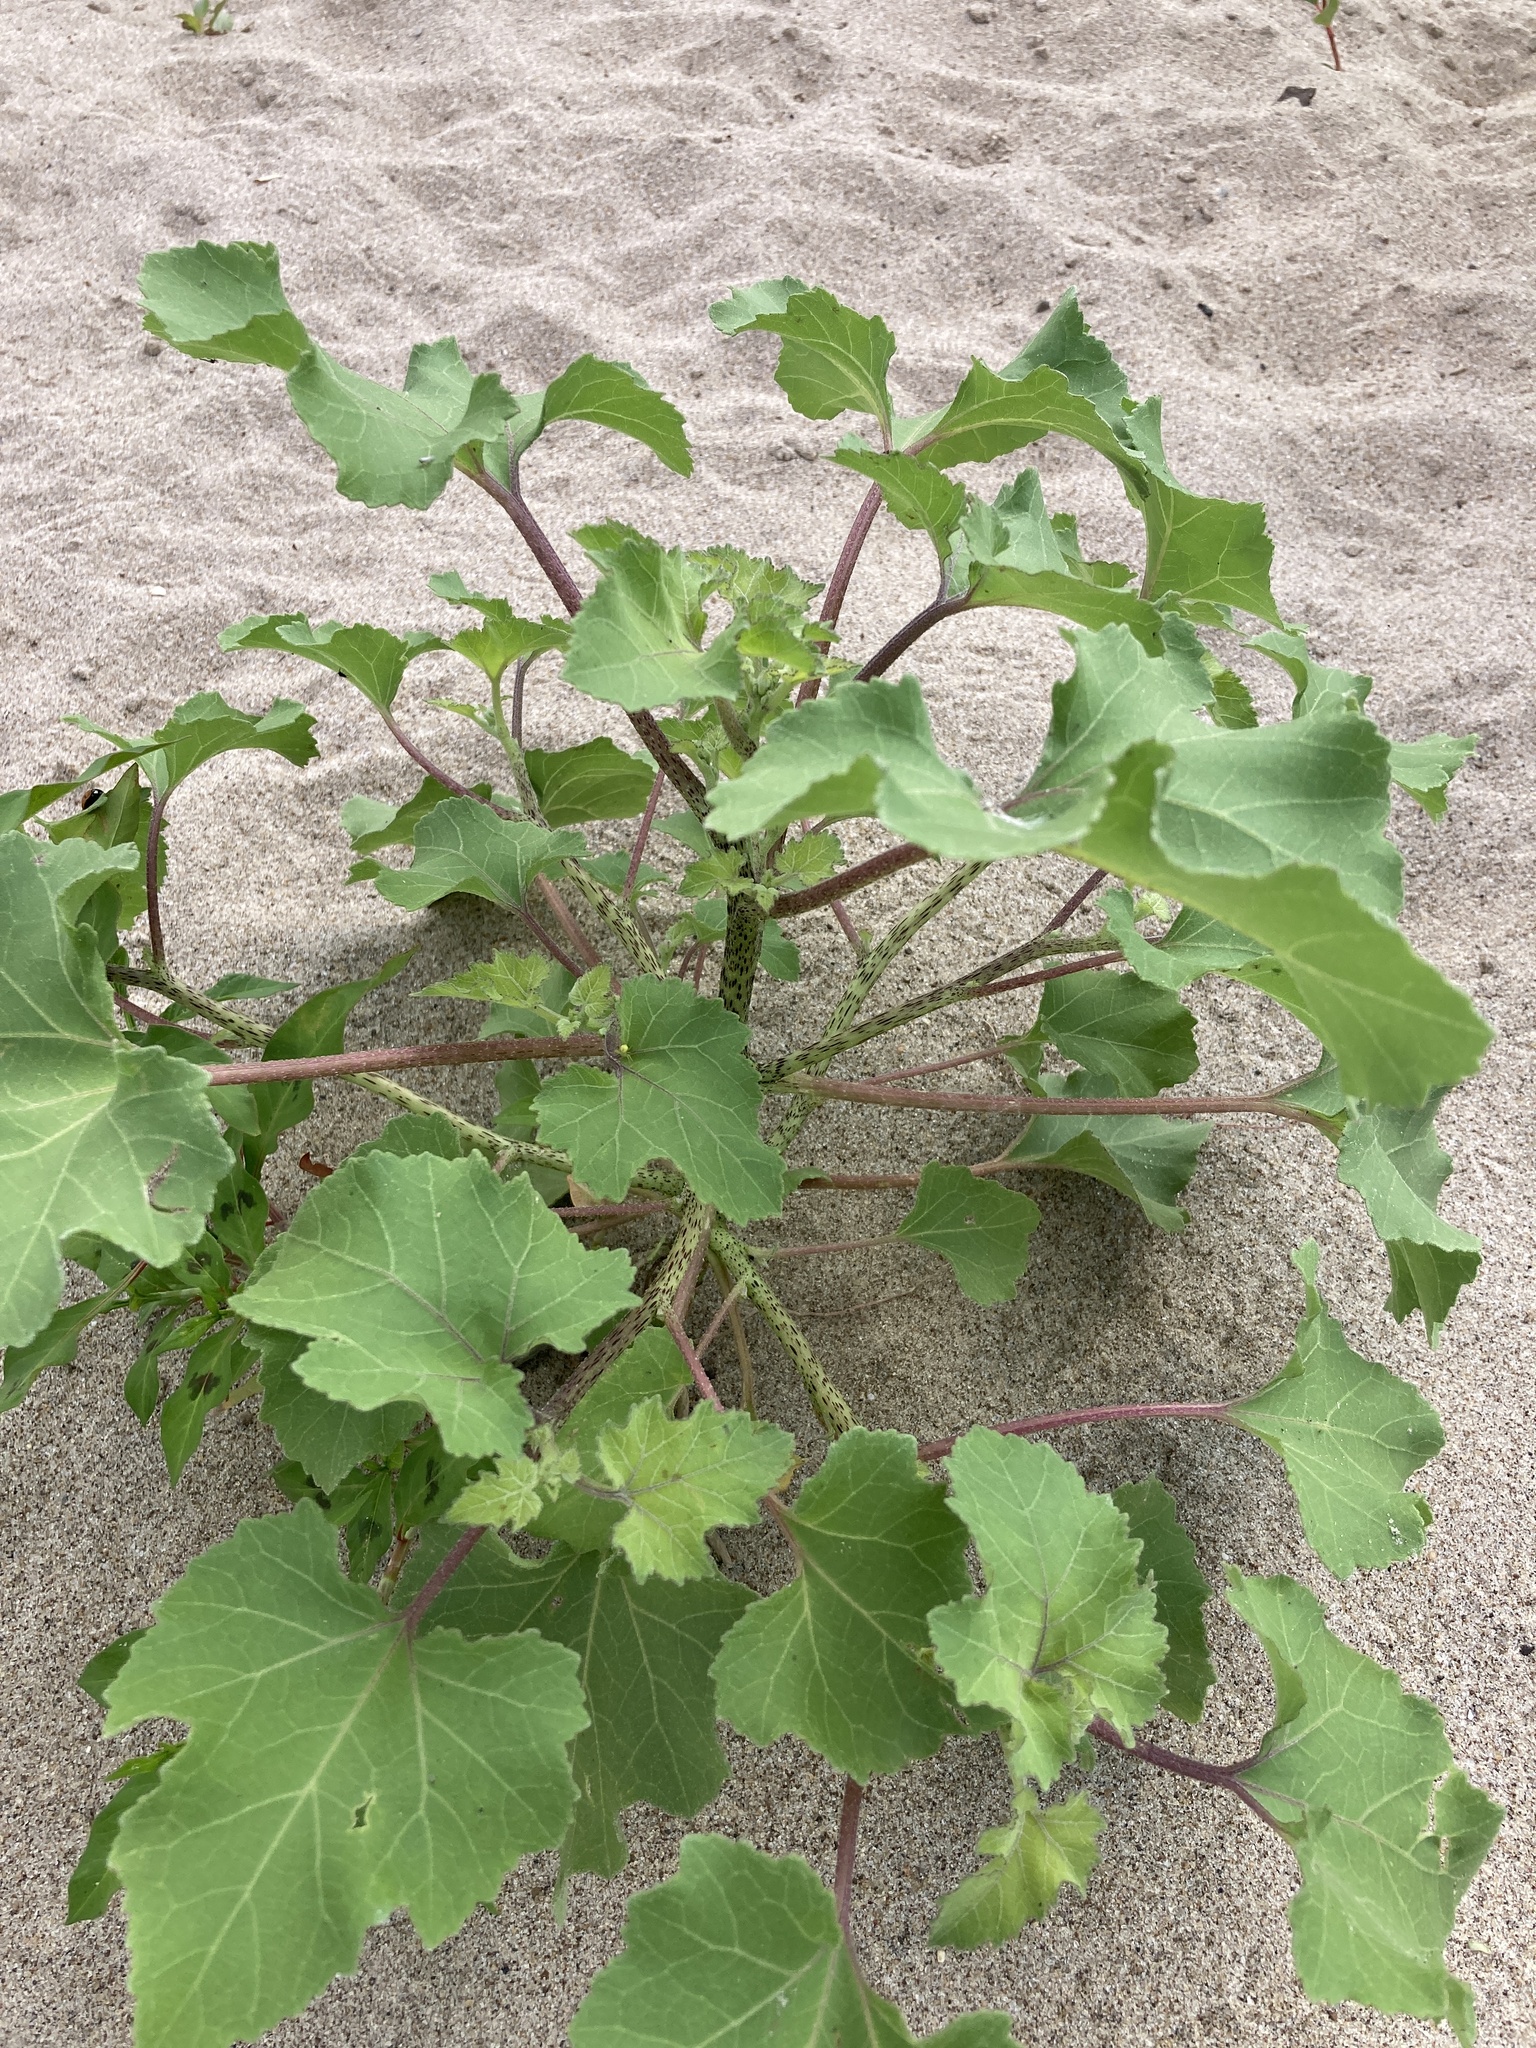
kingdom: Plantae
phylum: Tracheophyta
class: Magnoliopsida
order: Asterales
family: Asteraceae
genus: Xanthium
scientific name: Xanthium orientale
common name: Californian burr
